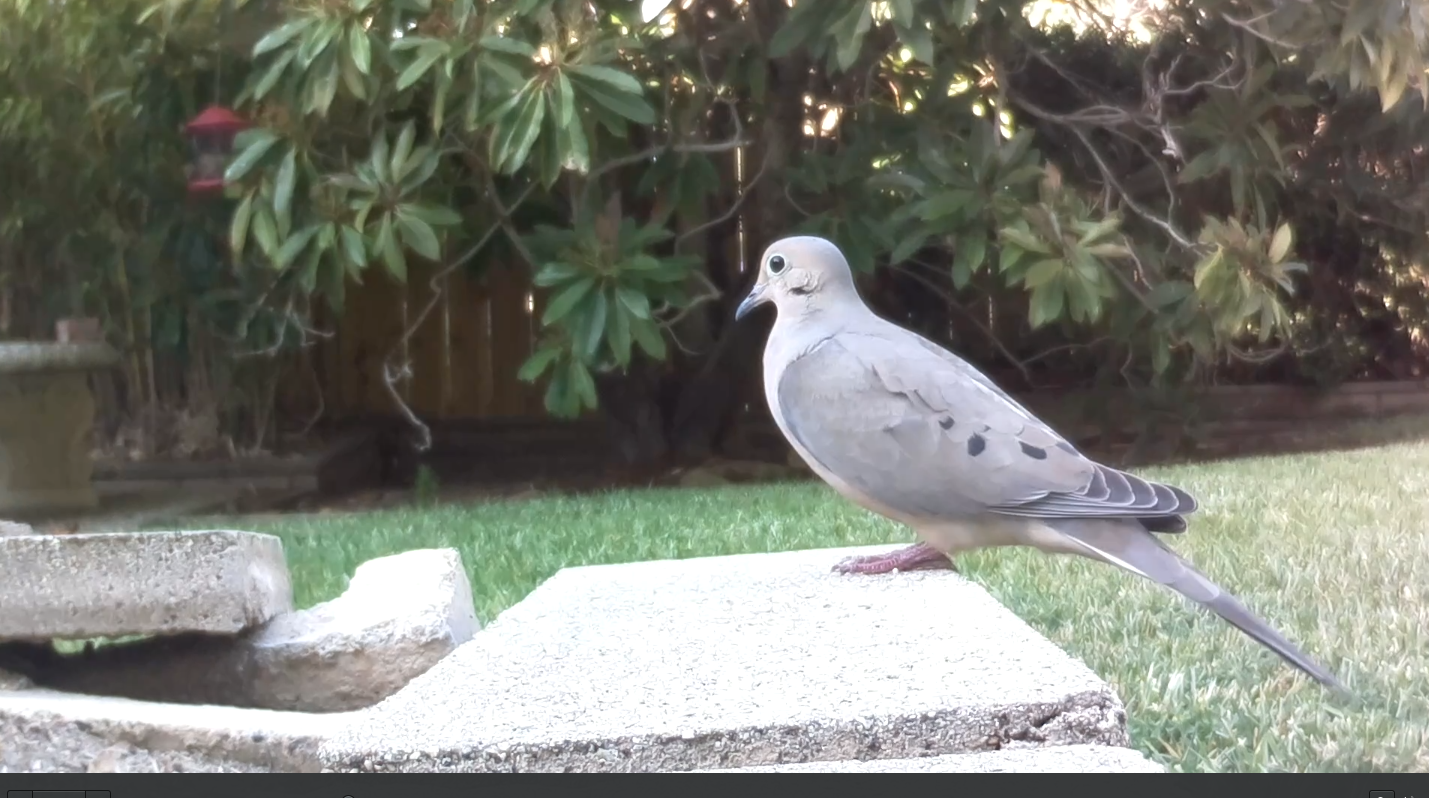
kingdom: Animalia
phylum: Chordata
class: Aves
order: Columbiformes
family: Columbidae
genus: Zenaida
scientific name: Zenaida macroura
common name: Mourning dove
